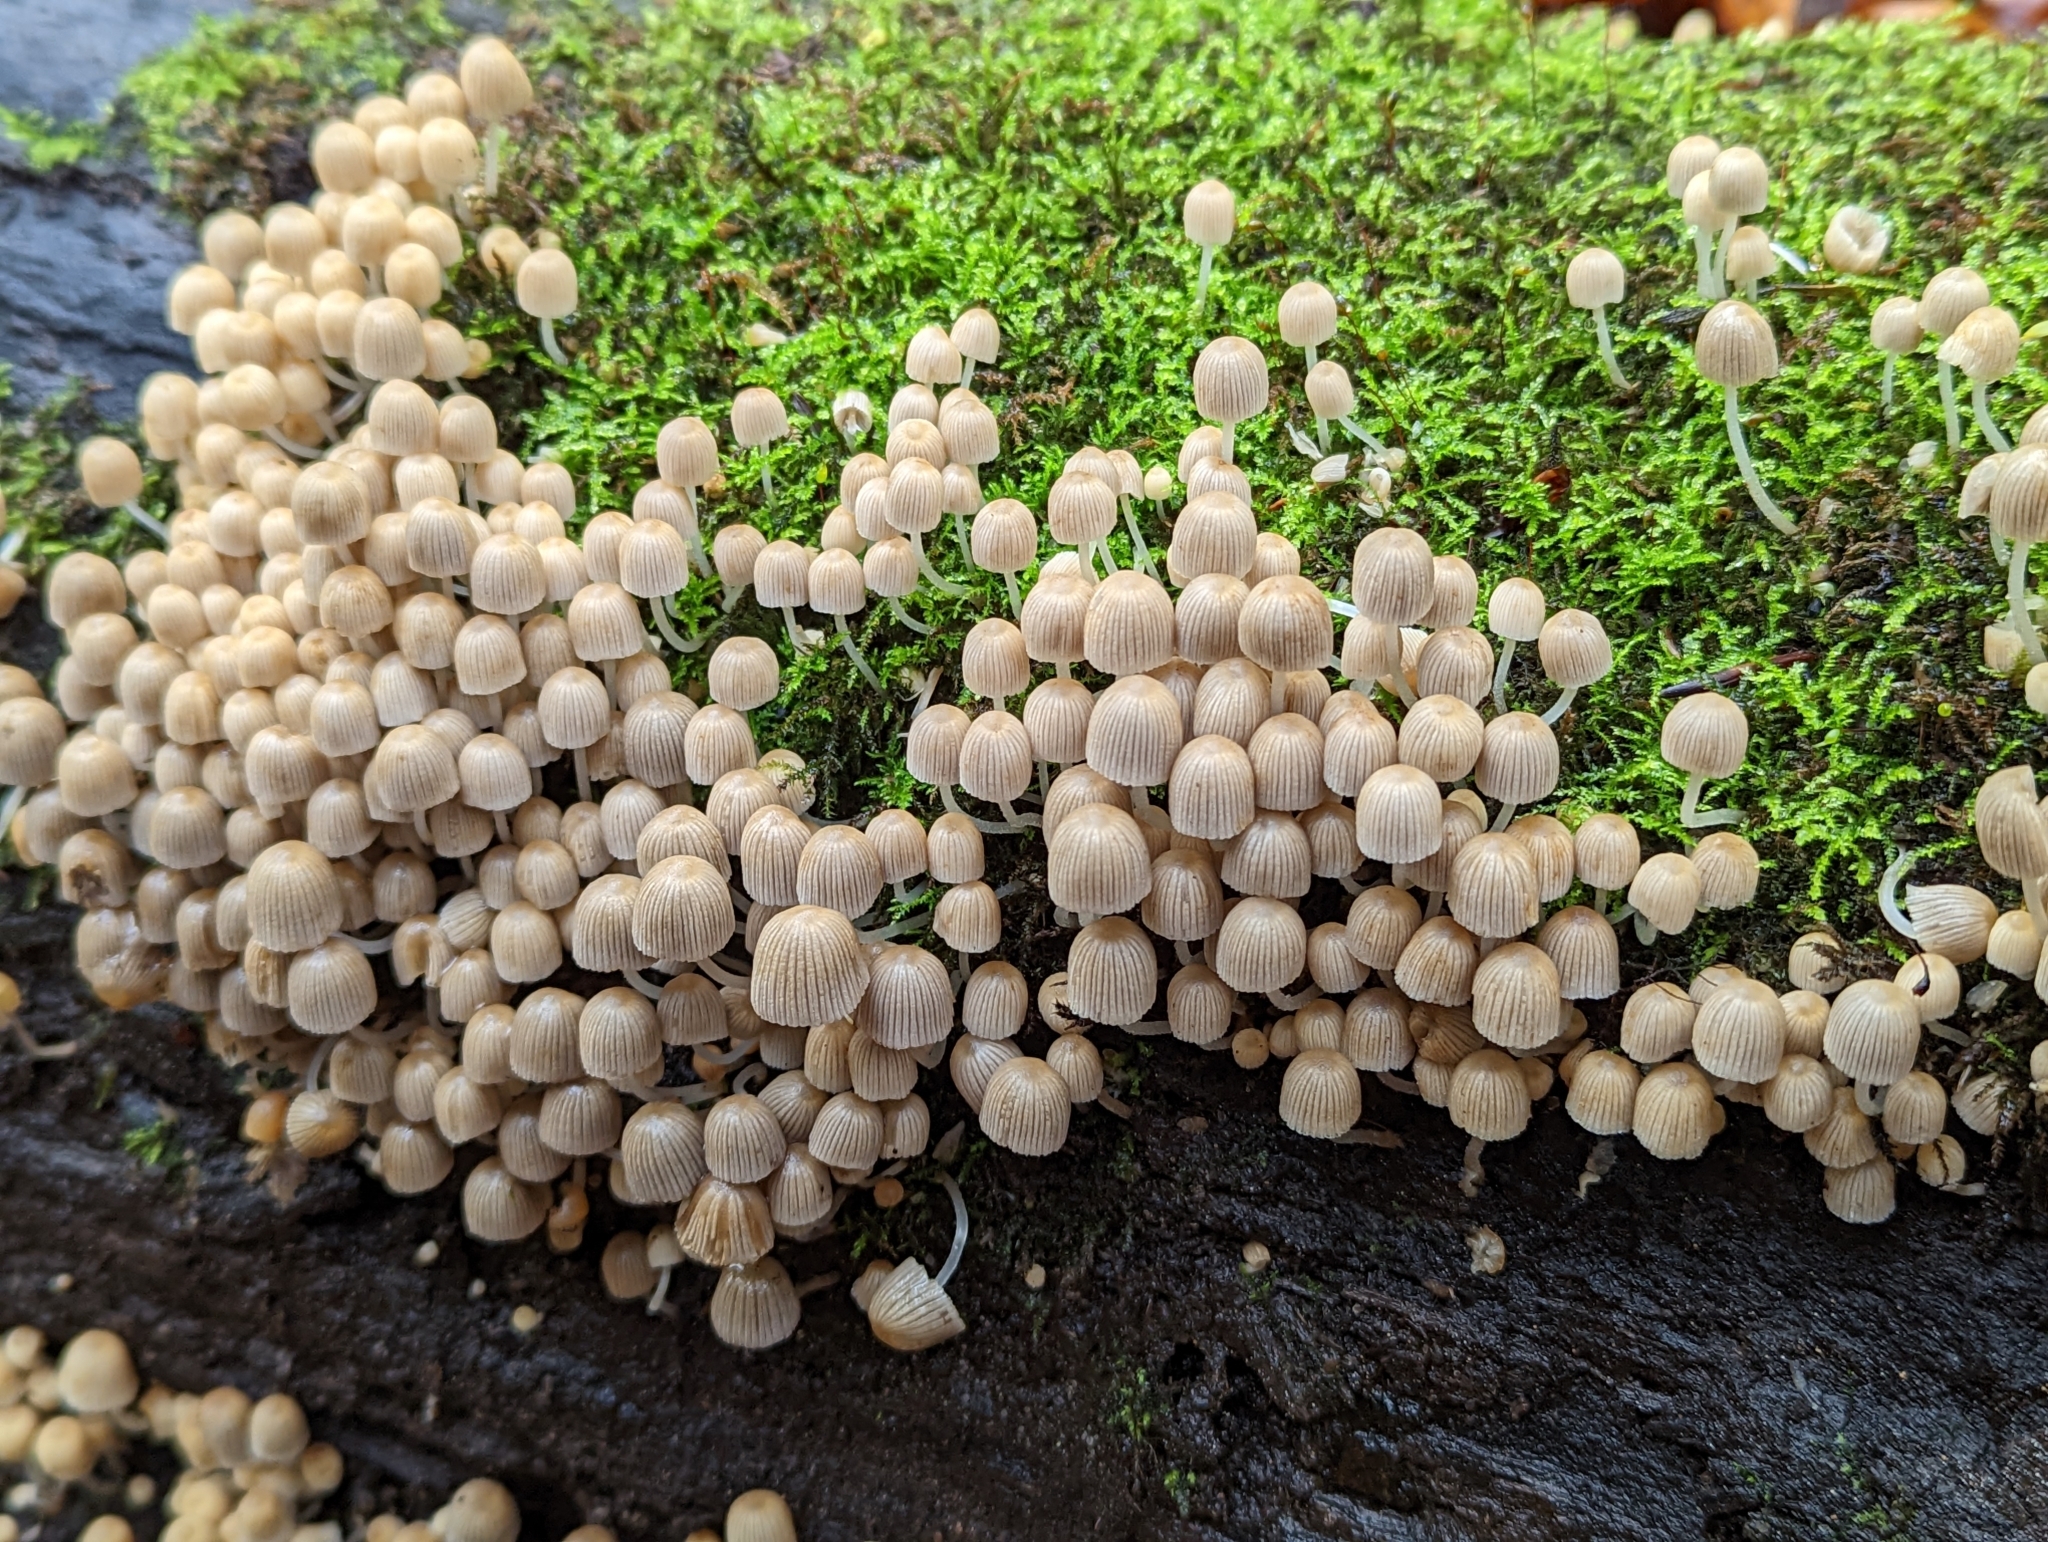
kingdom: Fungi
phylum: Basidiomycota
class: Agaricomycetes
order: Agaricales
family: Psathyrellaceae
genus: Coprinellus
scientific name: Coprinellus disseminatus
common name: Fairies' bonnets
